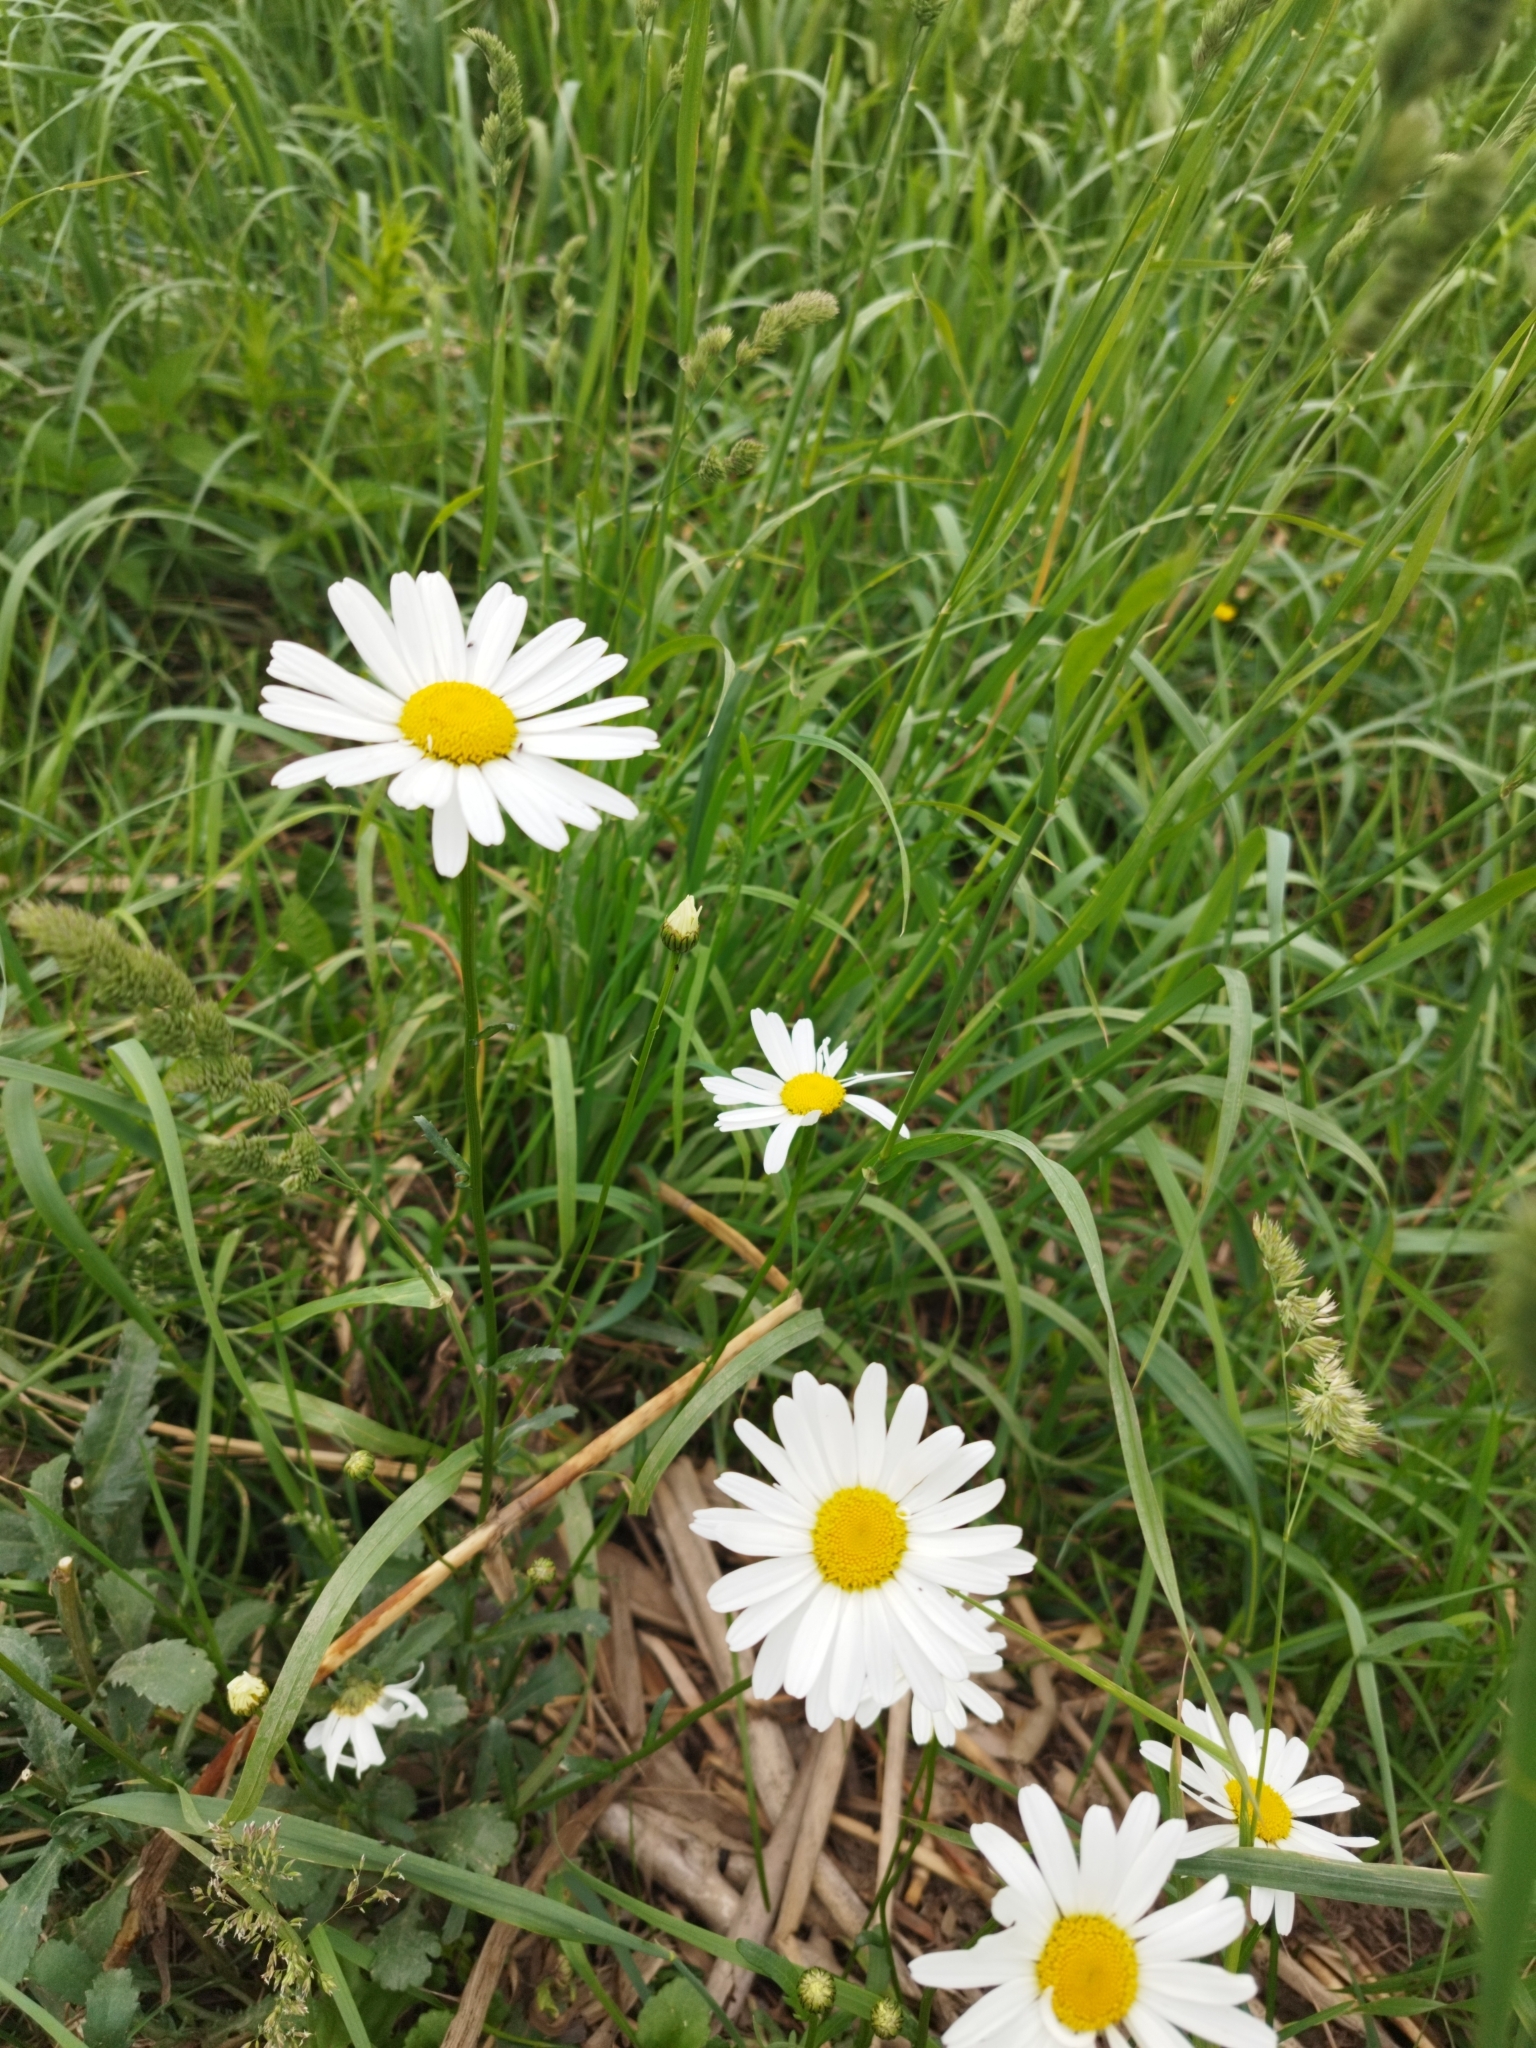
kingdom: Plantae
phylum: Tracheophyta
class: Magnoliopsida
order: Asterales
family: Asteraceae
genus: Leucanthemum
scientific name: Leucanthemum vulgare
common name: Oxeye daisy
